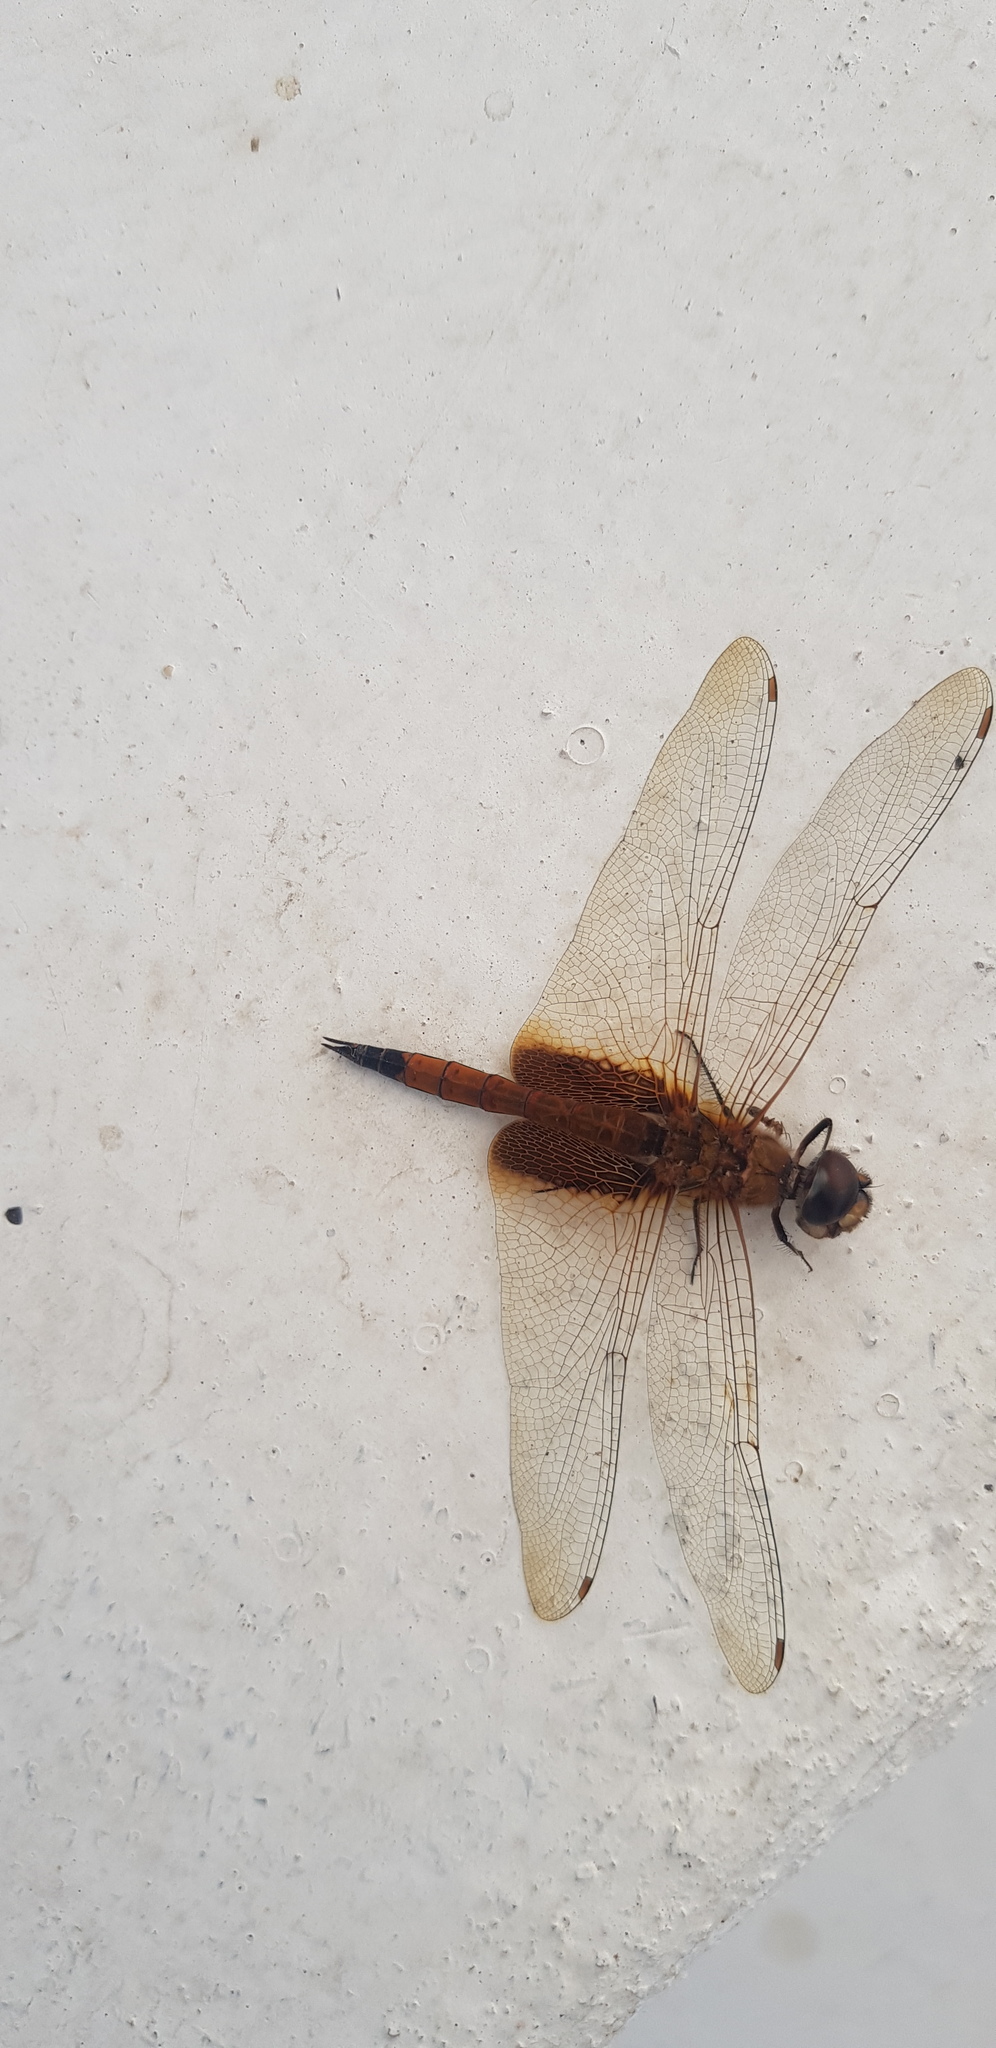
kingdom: Animalia
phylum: Arthropoda
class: Insecta
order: Odonata
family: Libellulidae
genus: Tramea
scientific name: Tramea darwini
